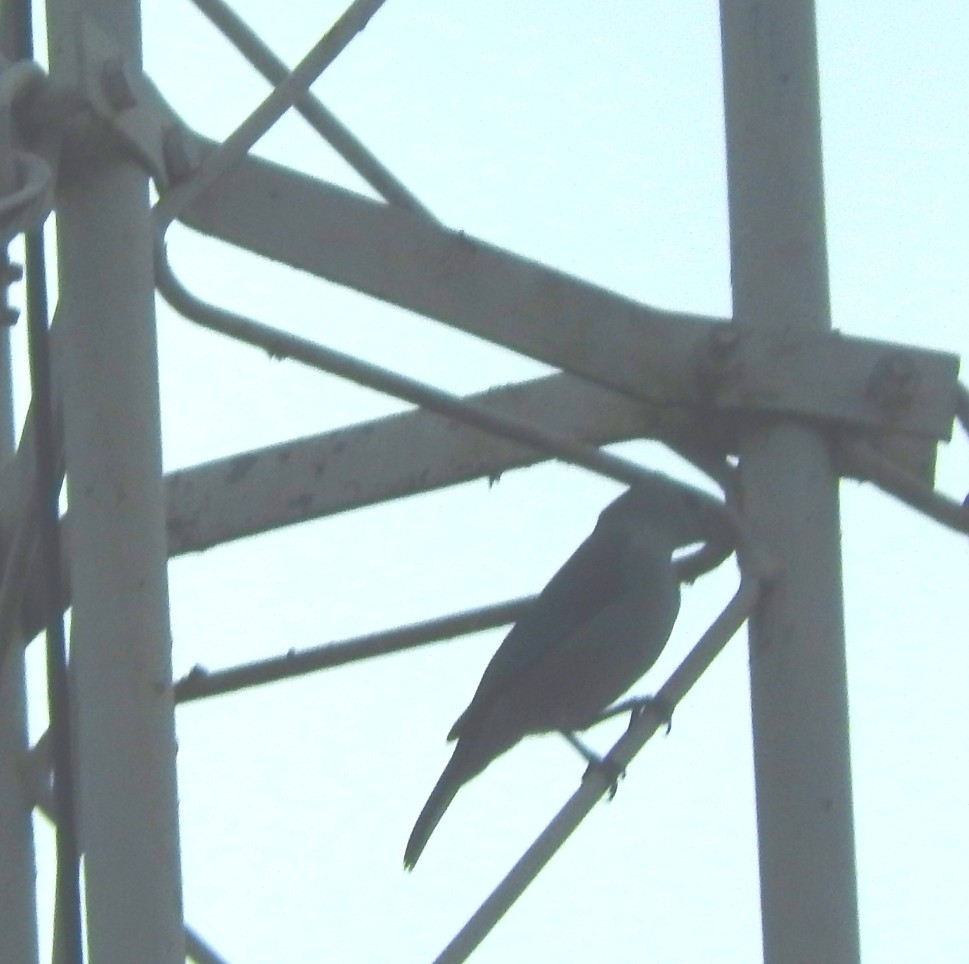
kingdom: Animalia
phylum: Chordata
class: Aves
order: Passeriformes
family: Thraupidae
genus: Thraupis
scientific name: Thraupis episcopus
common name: Blue-grey tanager
